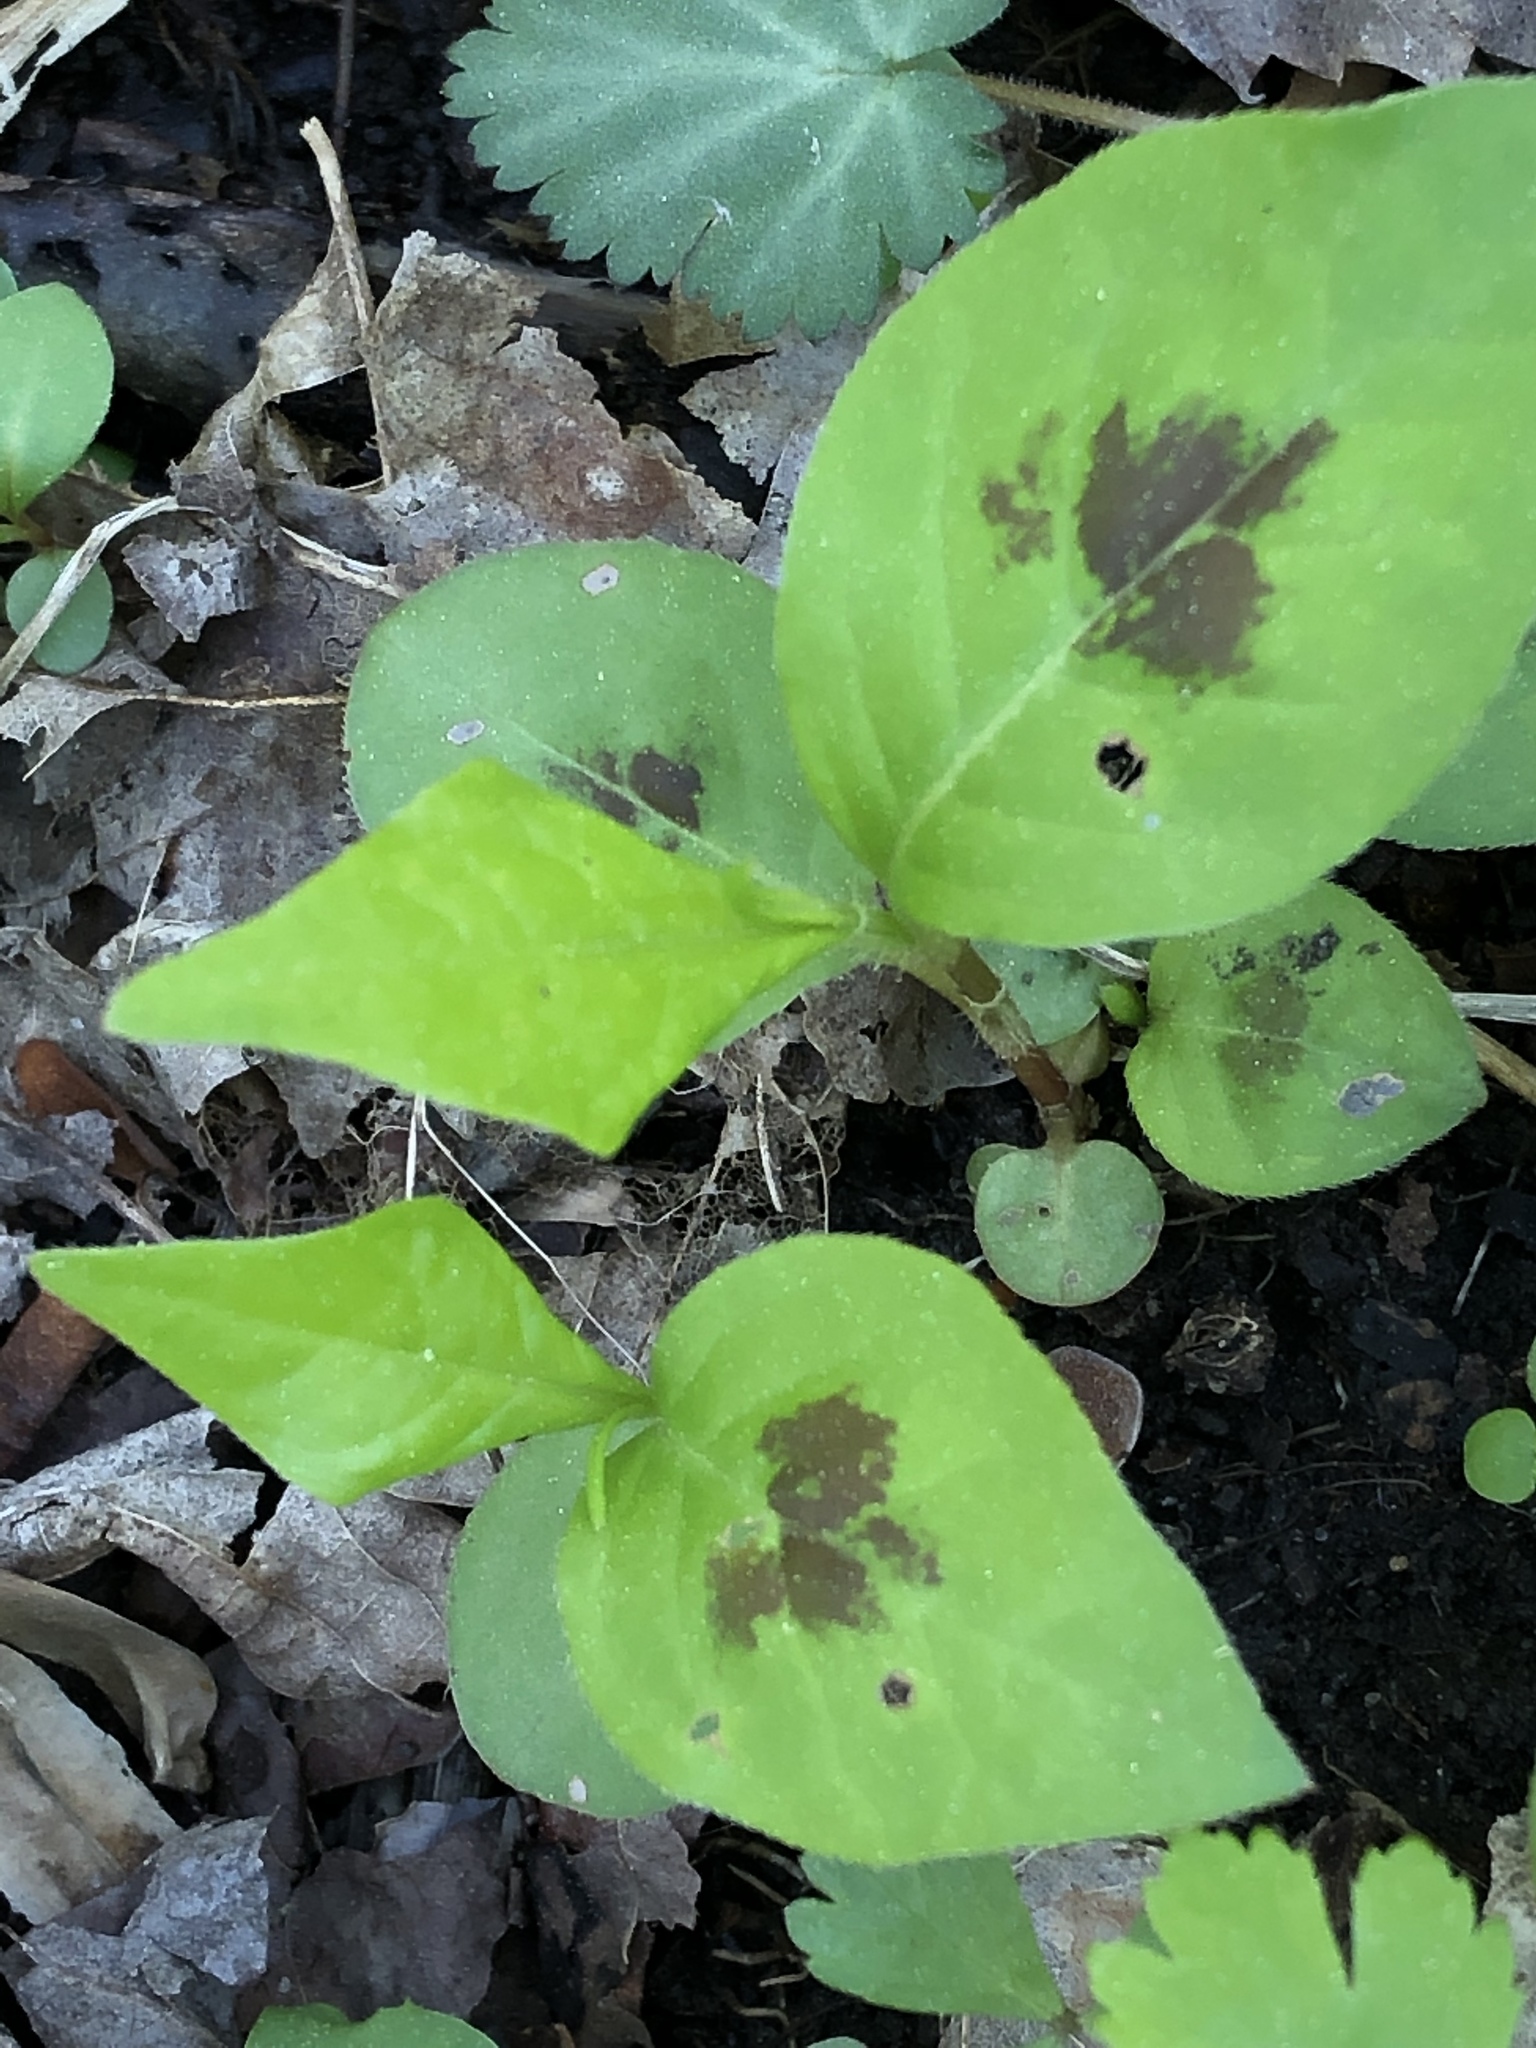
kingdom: Plantae
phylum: Tracheophyta
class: Magnoliopsida
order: Caryophyllales
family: Polygonaceae
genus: Persicaria
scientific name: Persicaria virginiana
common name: Jumpseed
